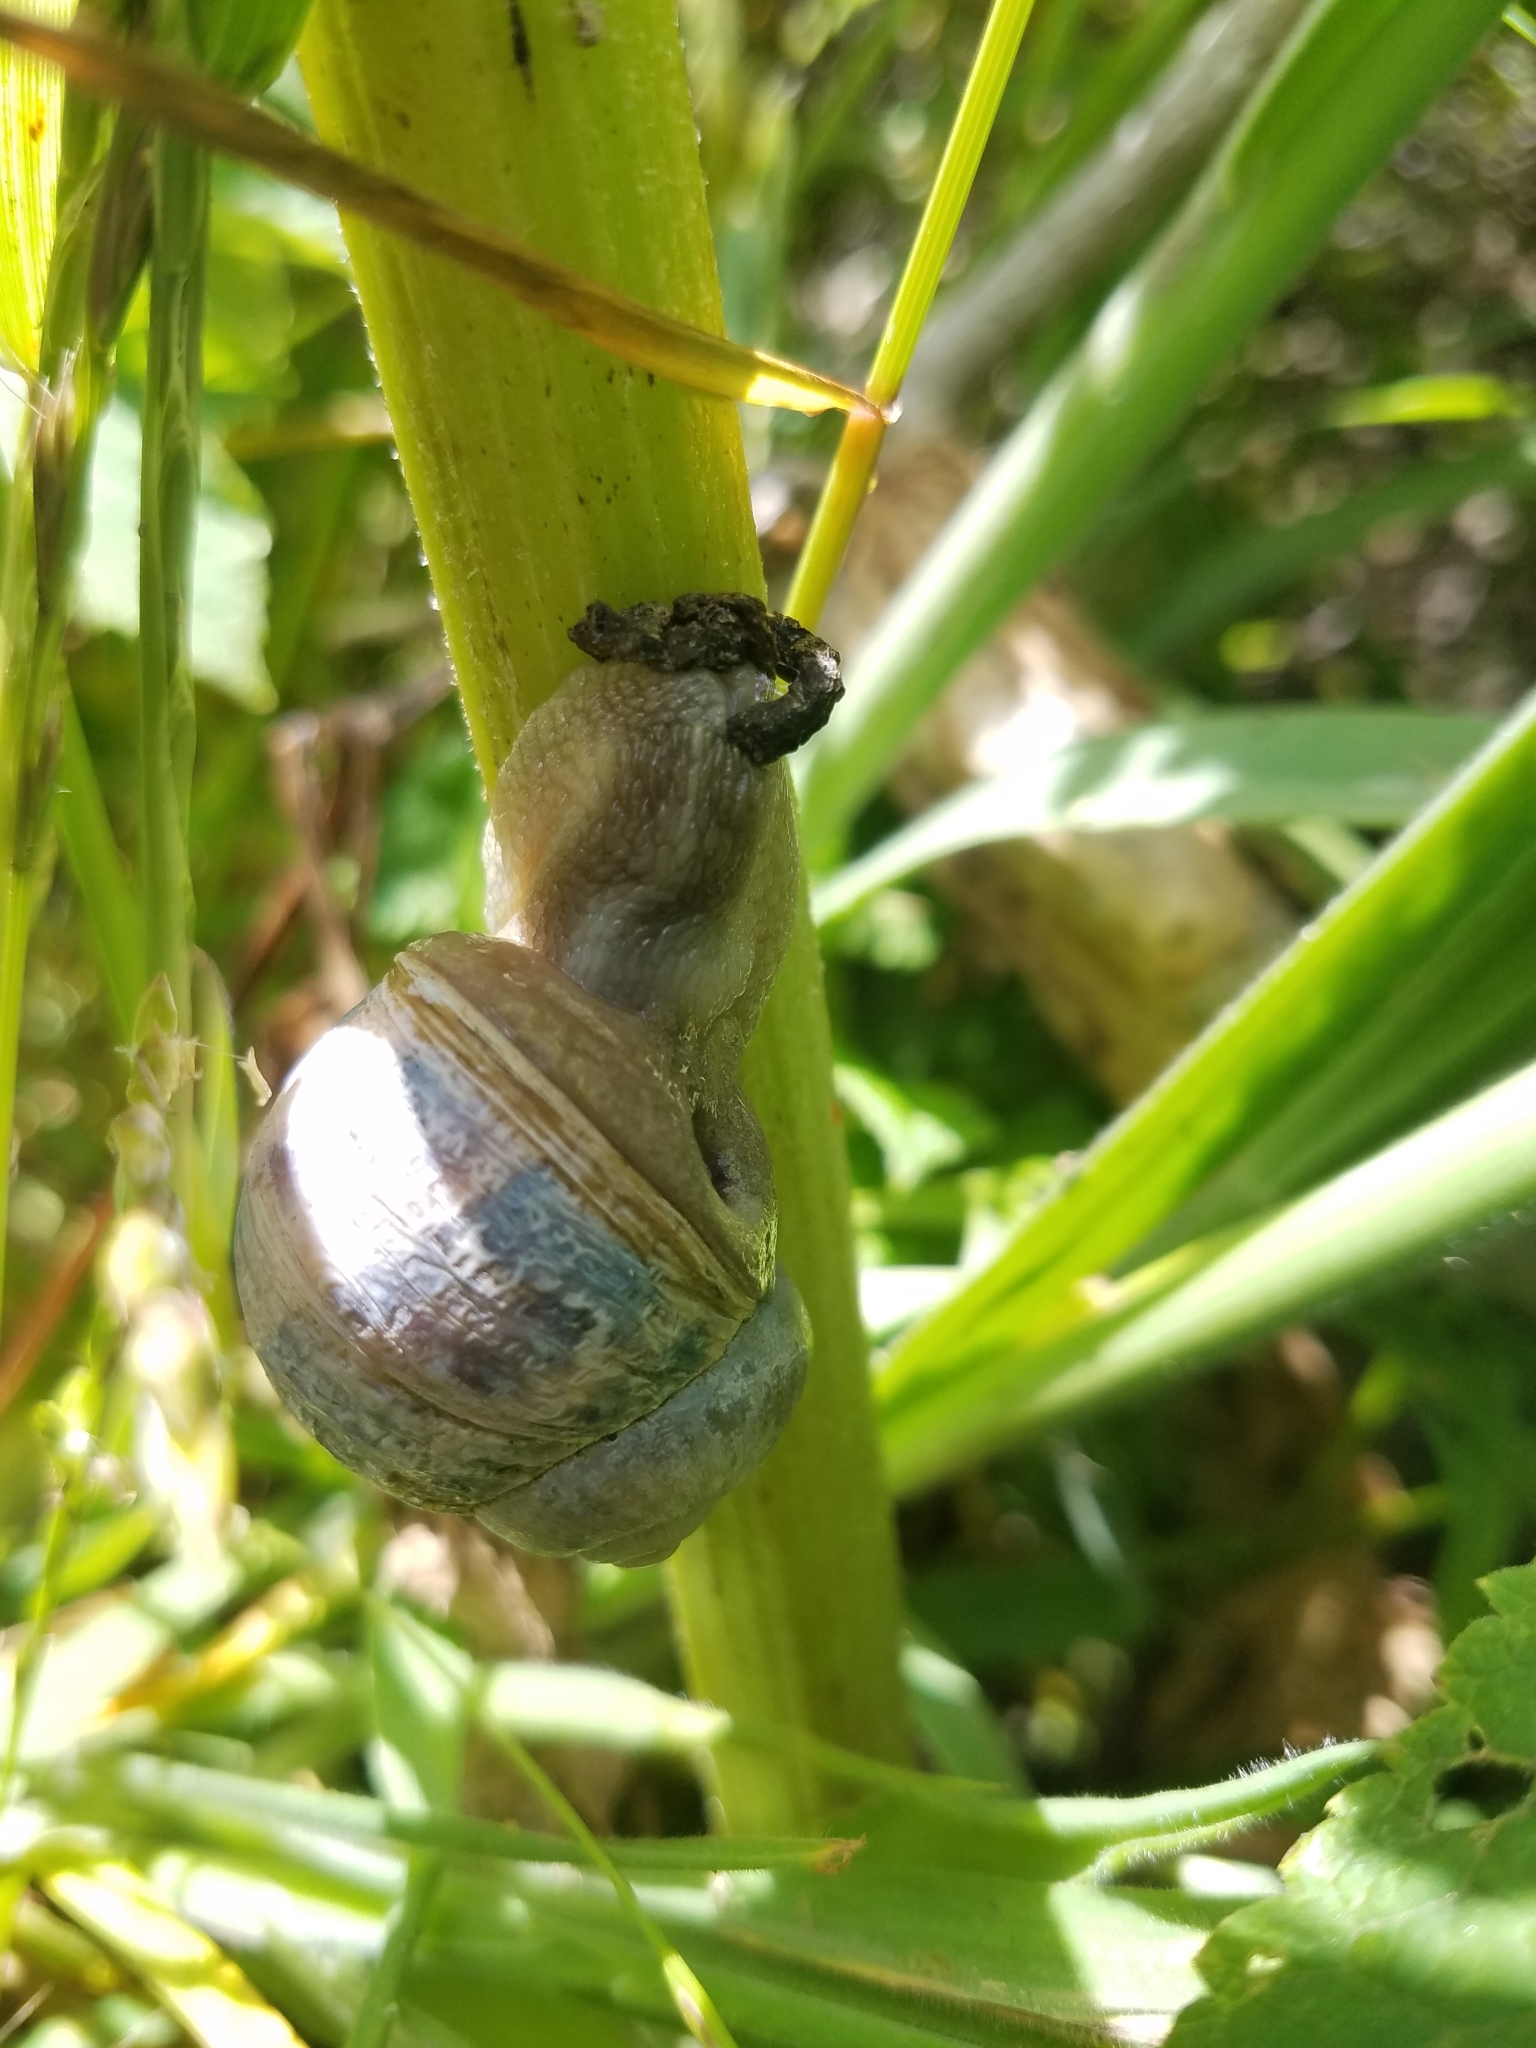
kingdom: Animalia
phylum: Mollusca
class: Gastropoda
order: Stylommatophora
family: Helicidae
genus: Cornu
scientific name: Cornu aspersum
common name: Brown garden snail
